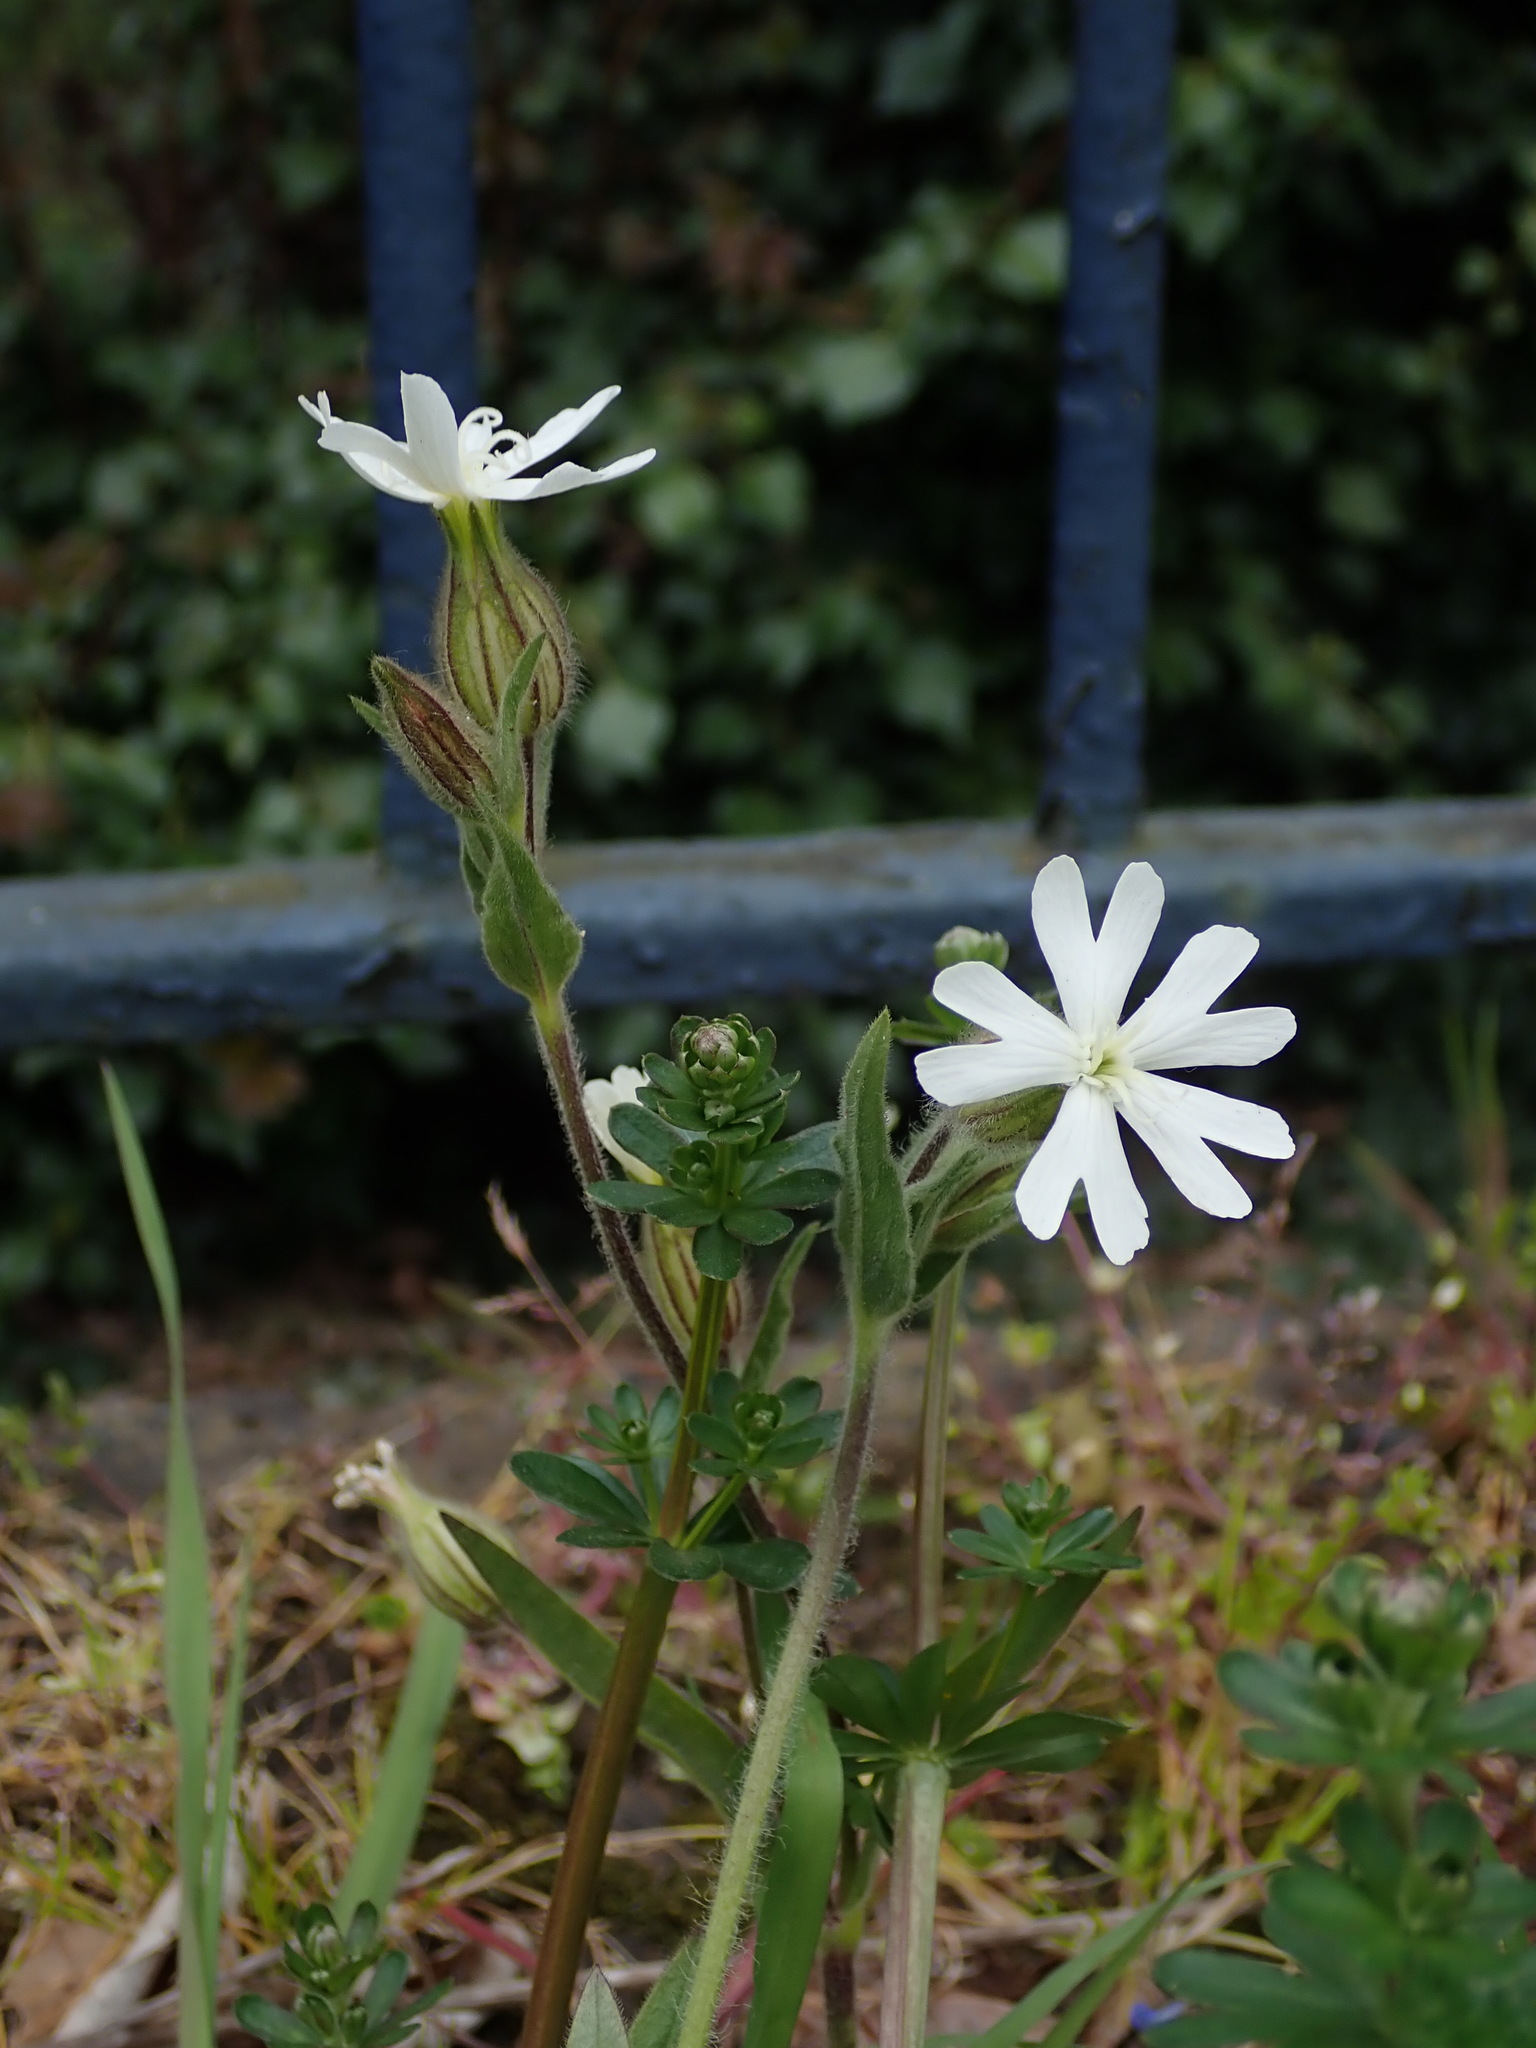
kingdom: Plantae
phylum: Tracheophyta
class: Magnoliopsida
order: Caryophyllales
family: Caryophyllaceae
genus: Silene
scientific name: Silene latifolia
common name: White campion
